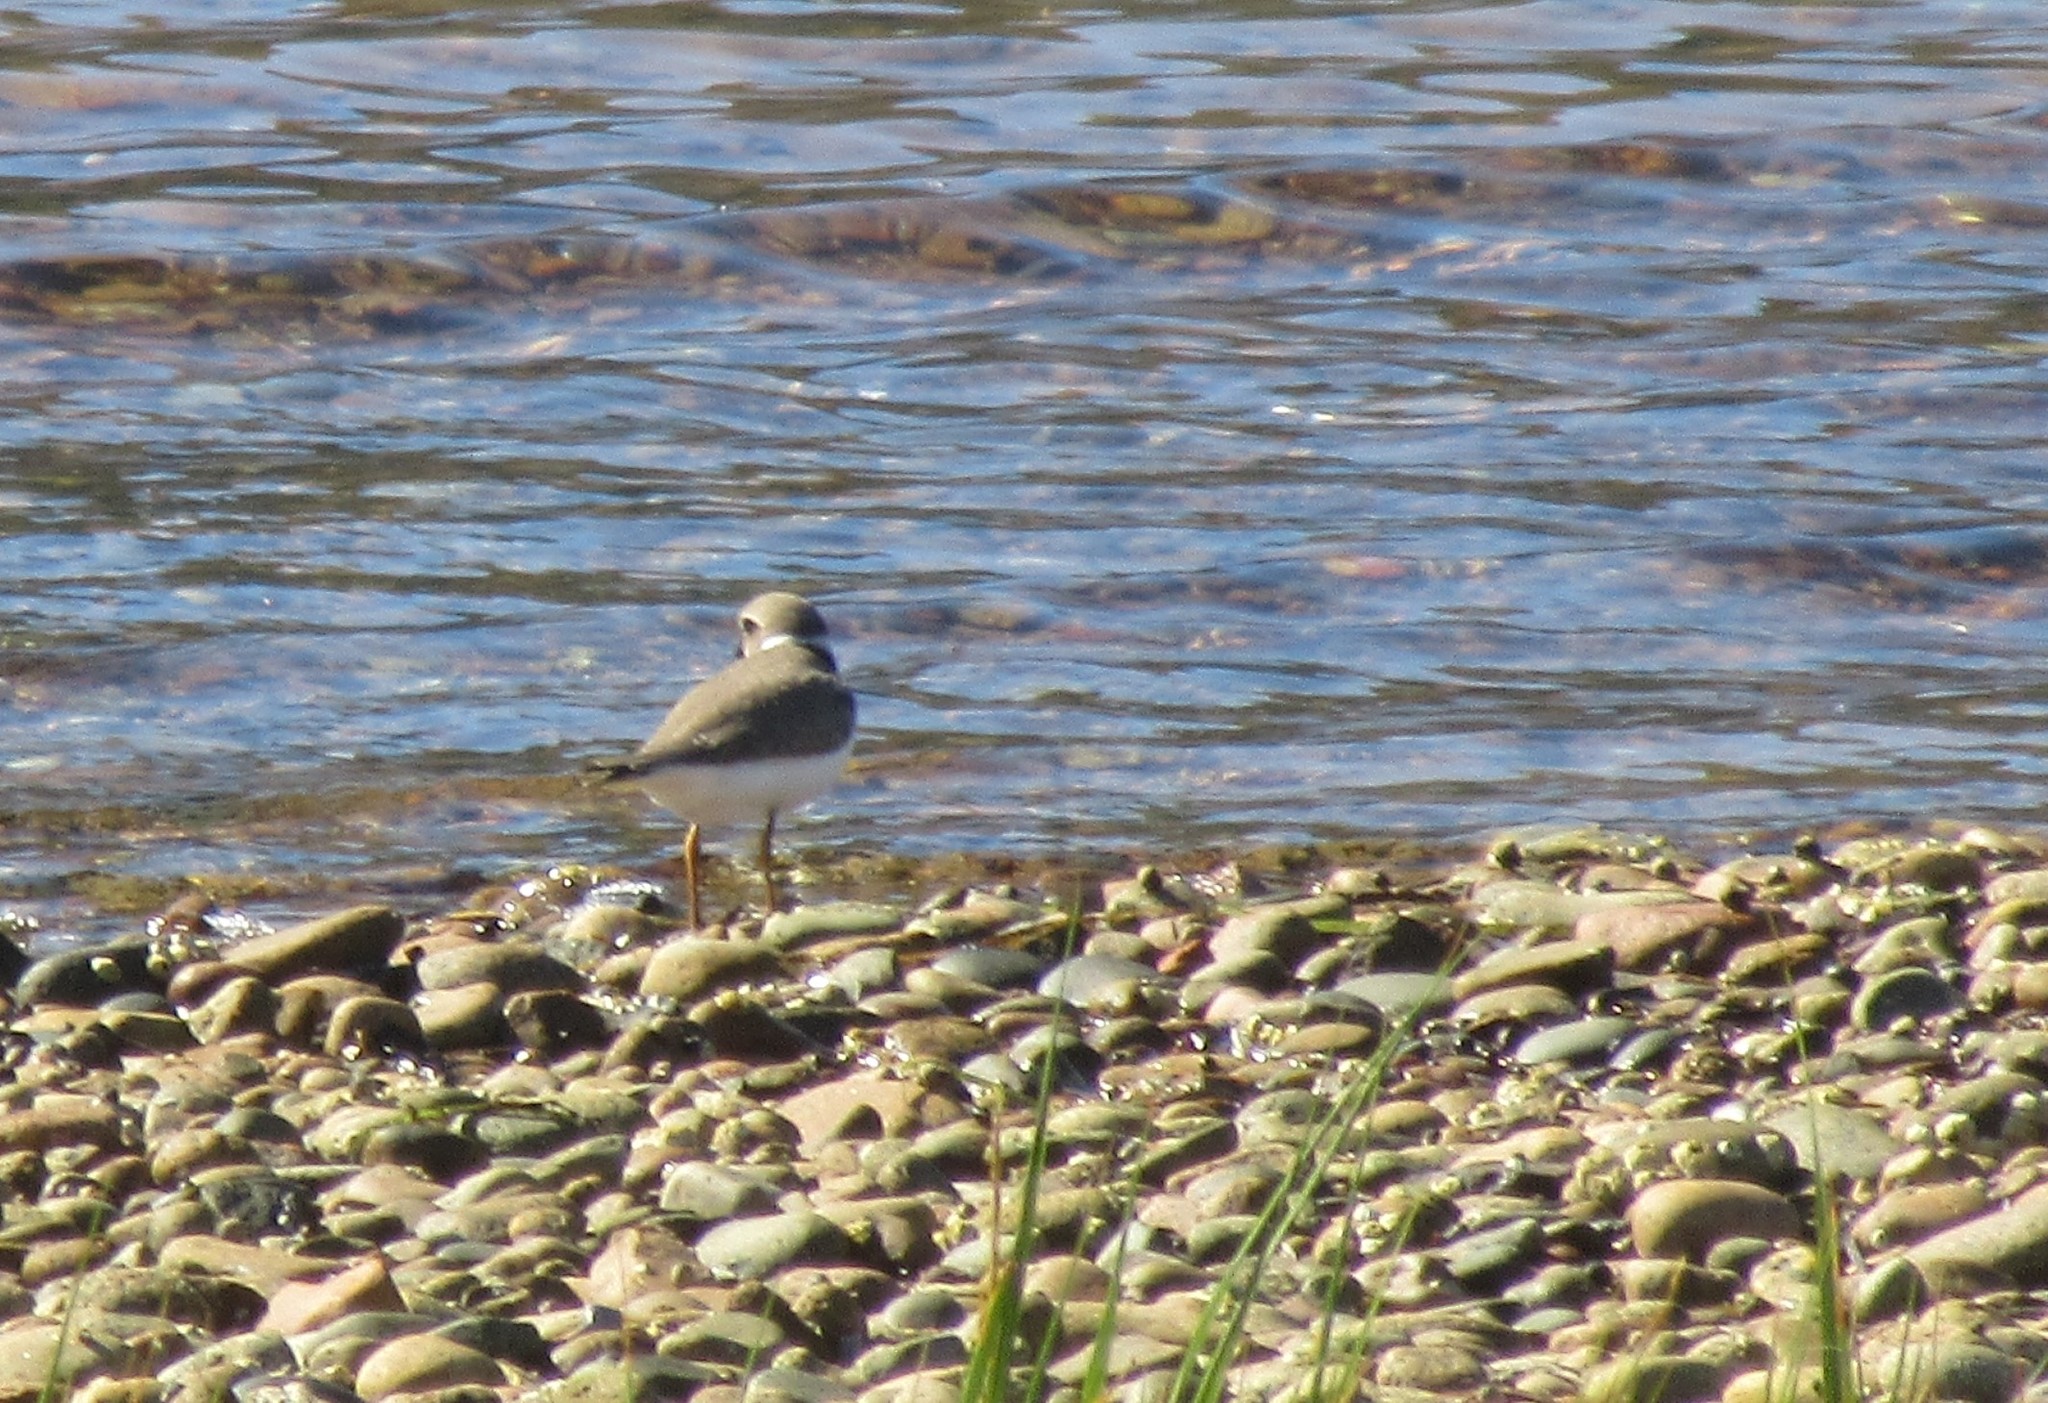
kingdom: Animalia
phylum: Chordata
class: Aves
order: Charadriiformes
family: Charadriidae
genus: Charadrius
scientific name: Charadrius semipalmatus
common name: Semipalmated plover
